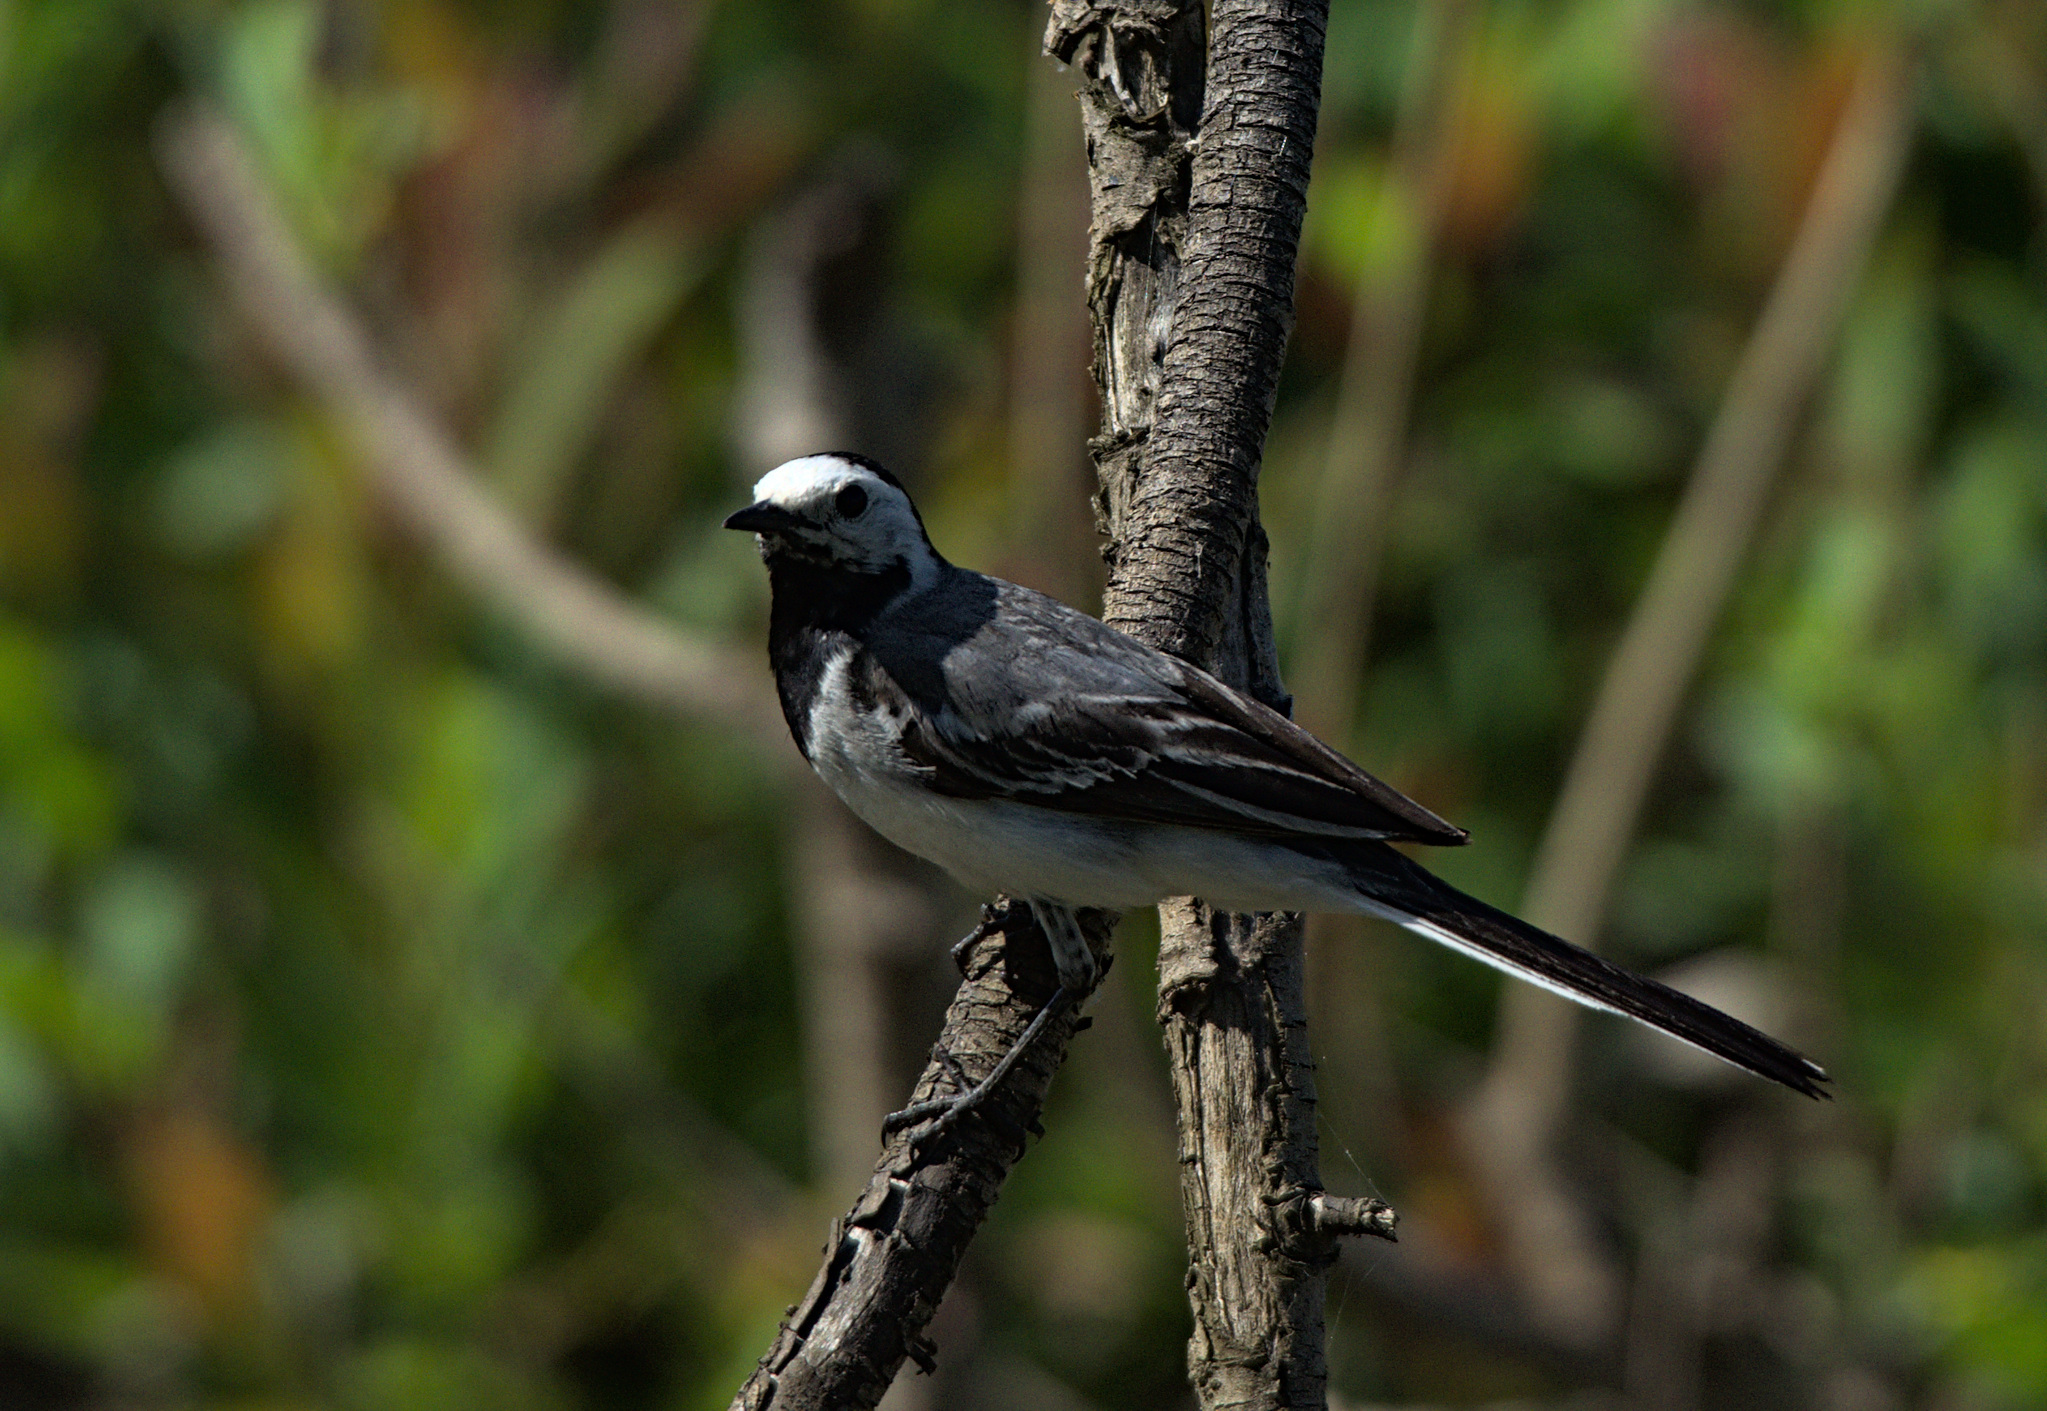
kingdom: Animalia
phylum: Chordata
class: Aves
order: Passeriformes
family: Motacillidae
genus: Motacilla
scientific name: Motacilla alba
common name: White wagtail
